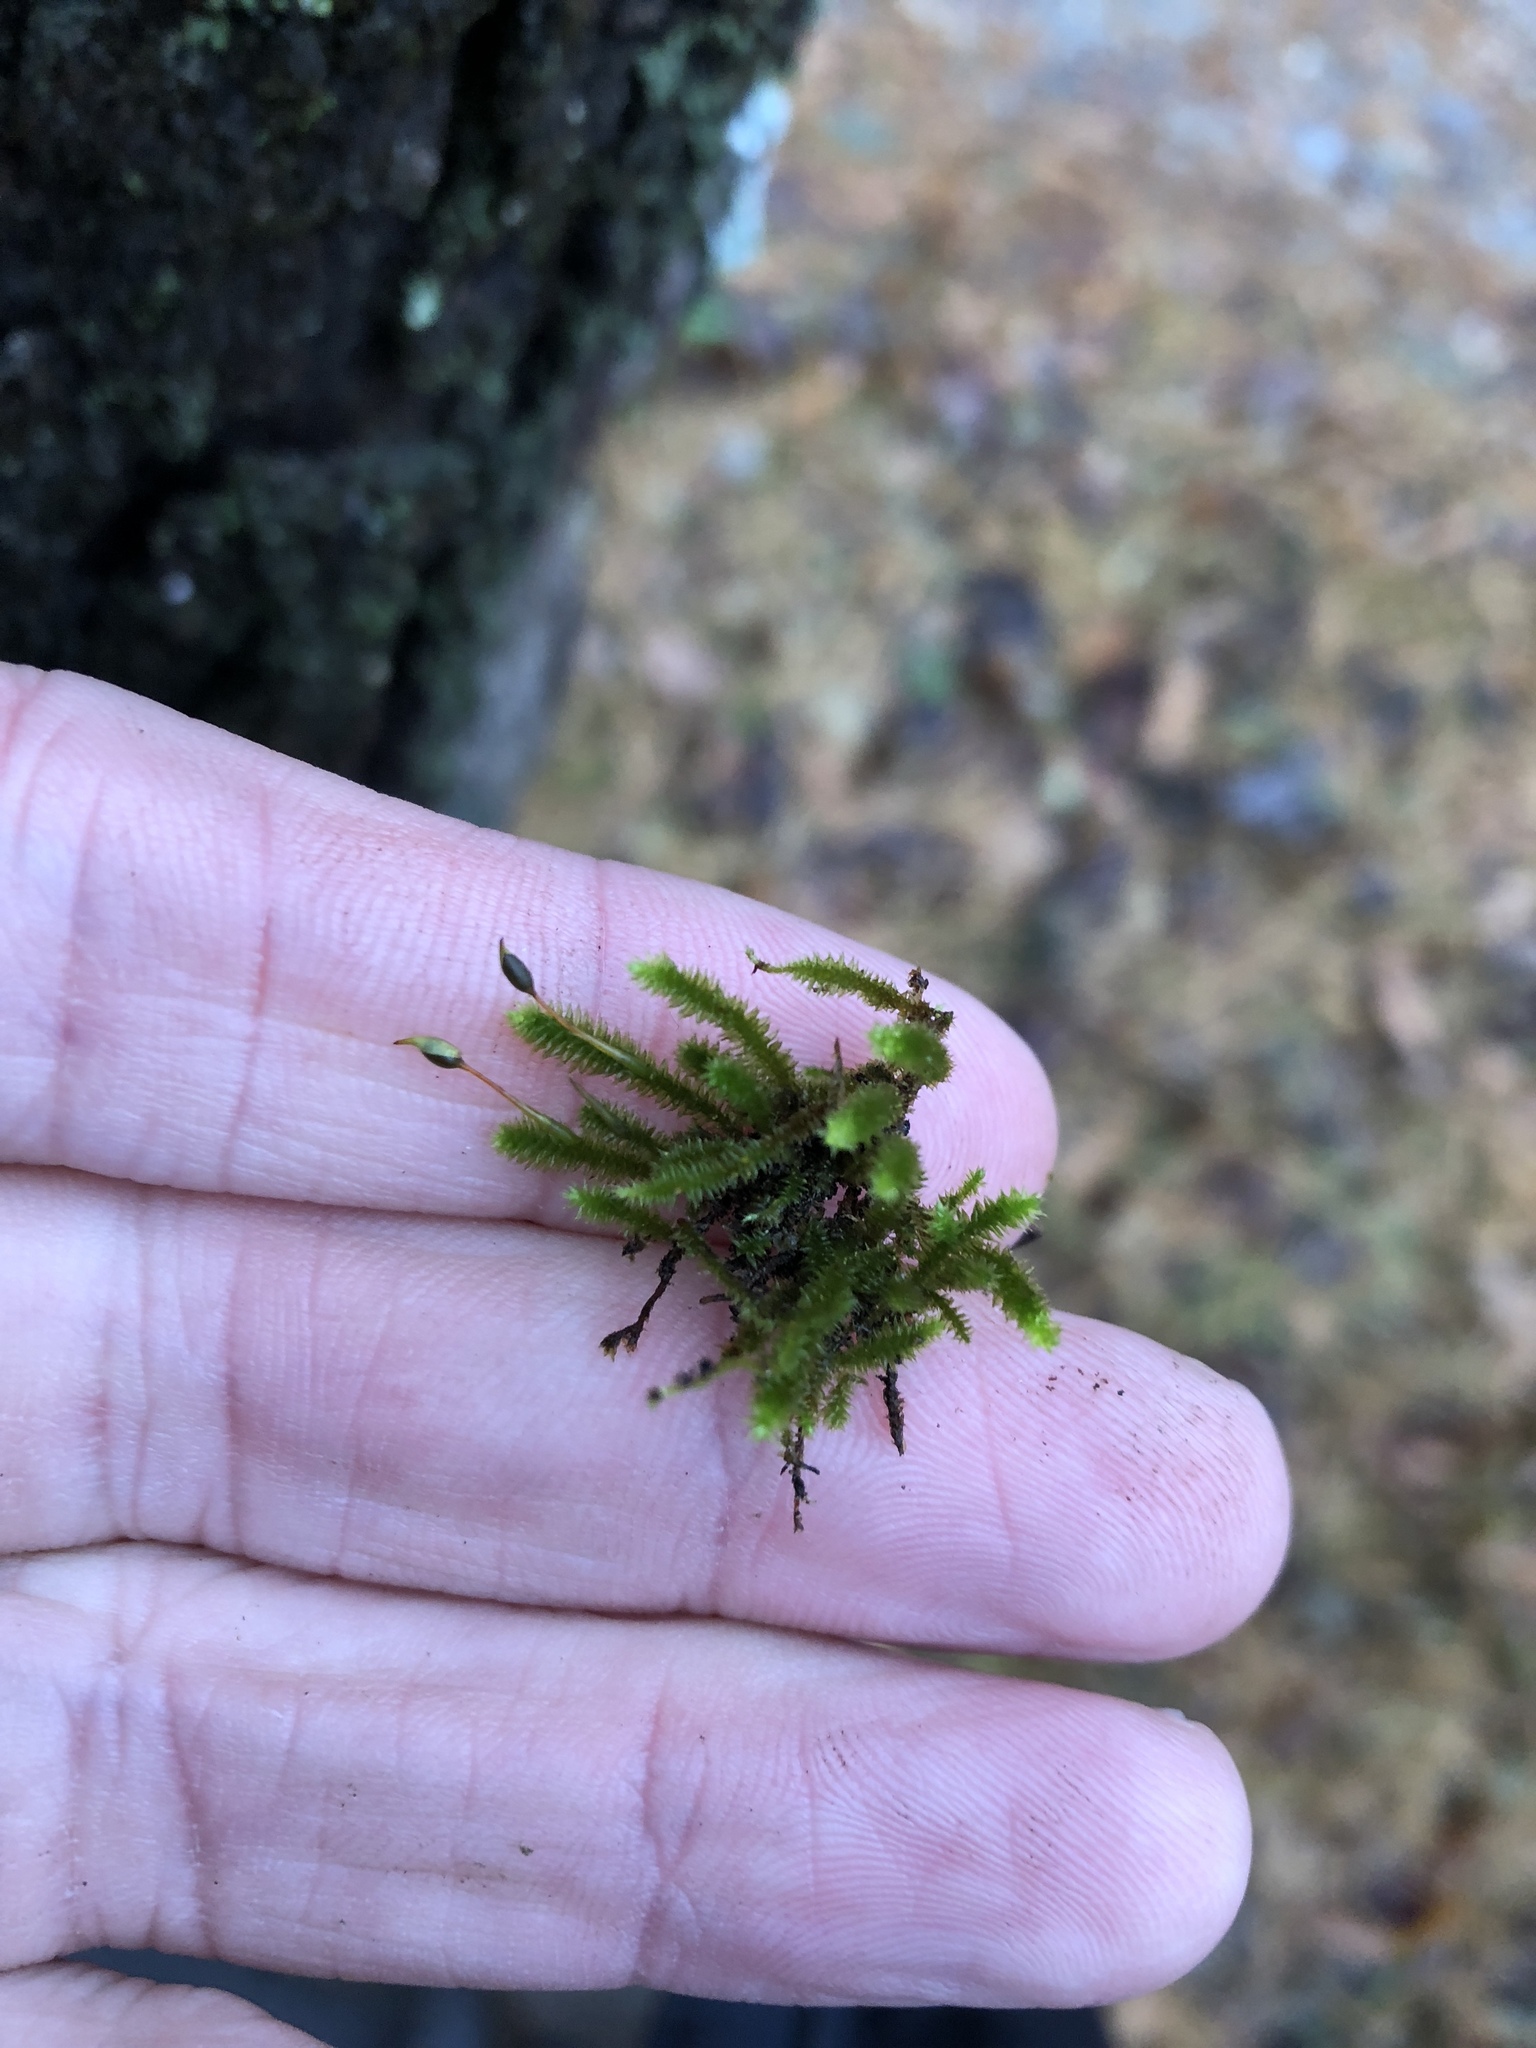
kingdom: Plantae
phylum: Bryophyta
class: Bryopsida
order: Hypnales
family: Leucodontaceae
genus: Leucodon
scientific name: Leucodon julaceus
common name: Smooth hook moss
